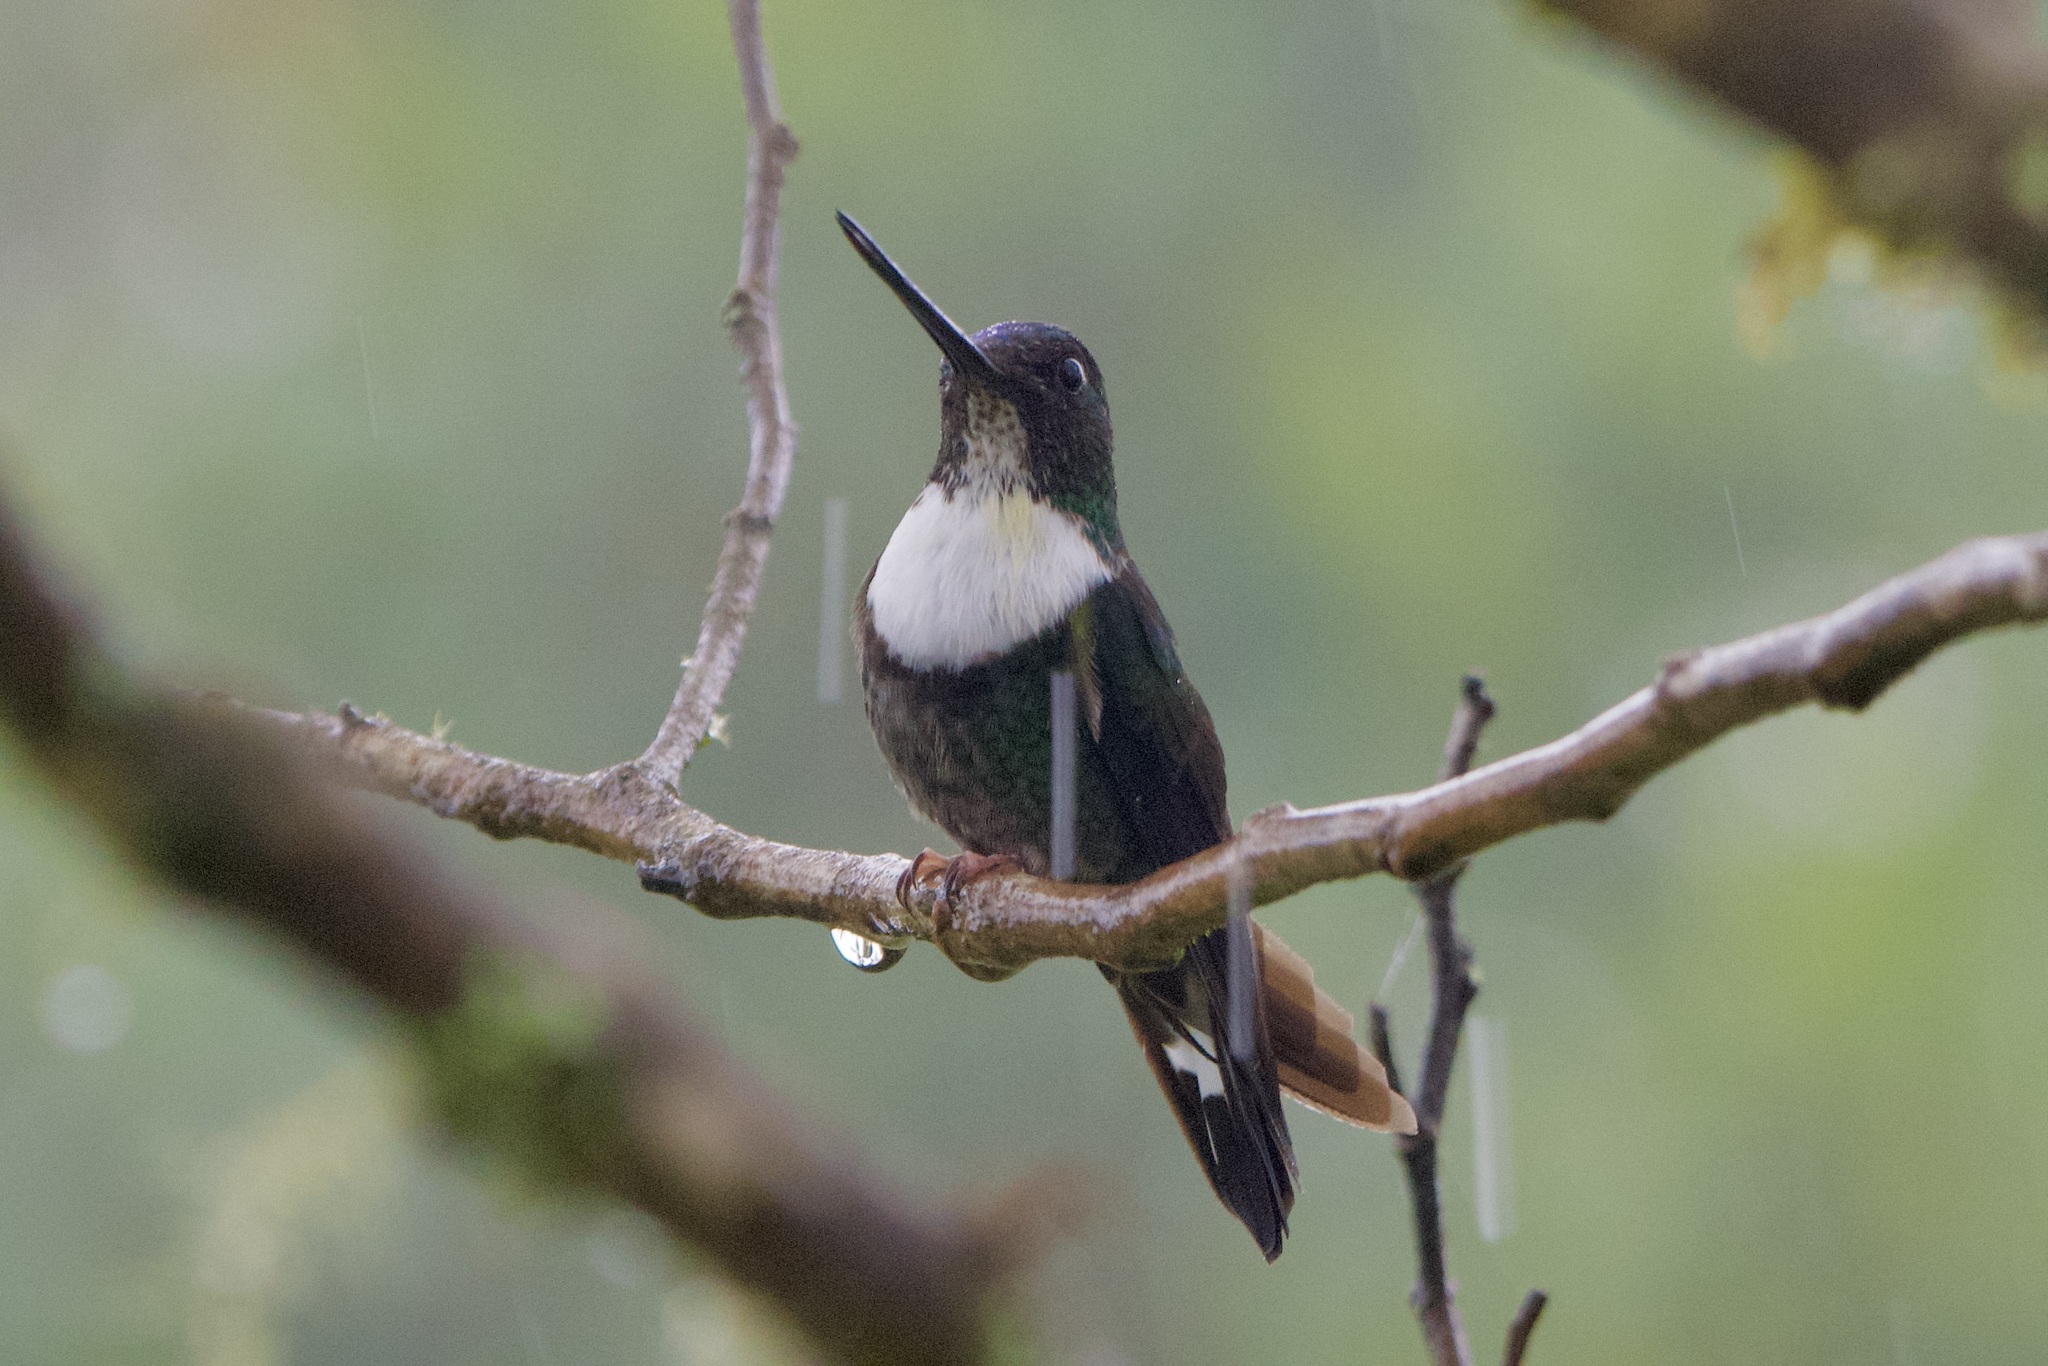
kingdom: Animalia
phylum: Chordata
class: Aves
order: Apodiformes
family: Trochilidae
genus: Coeligena
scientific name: Coeligena torquata
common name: Collared inca
